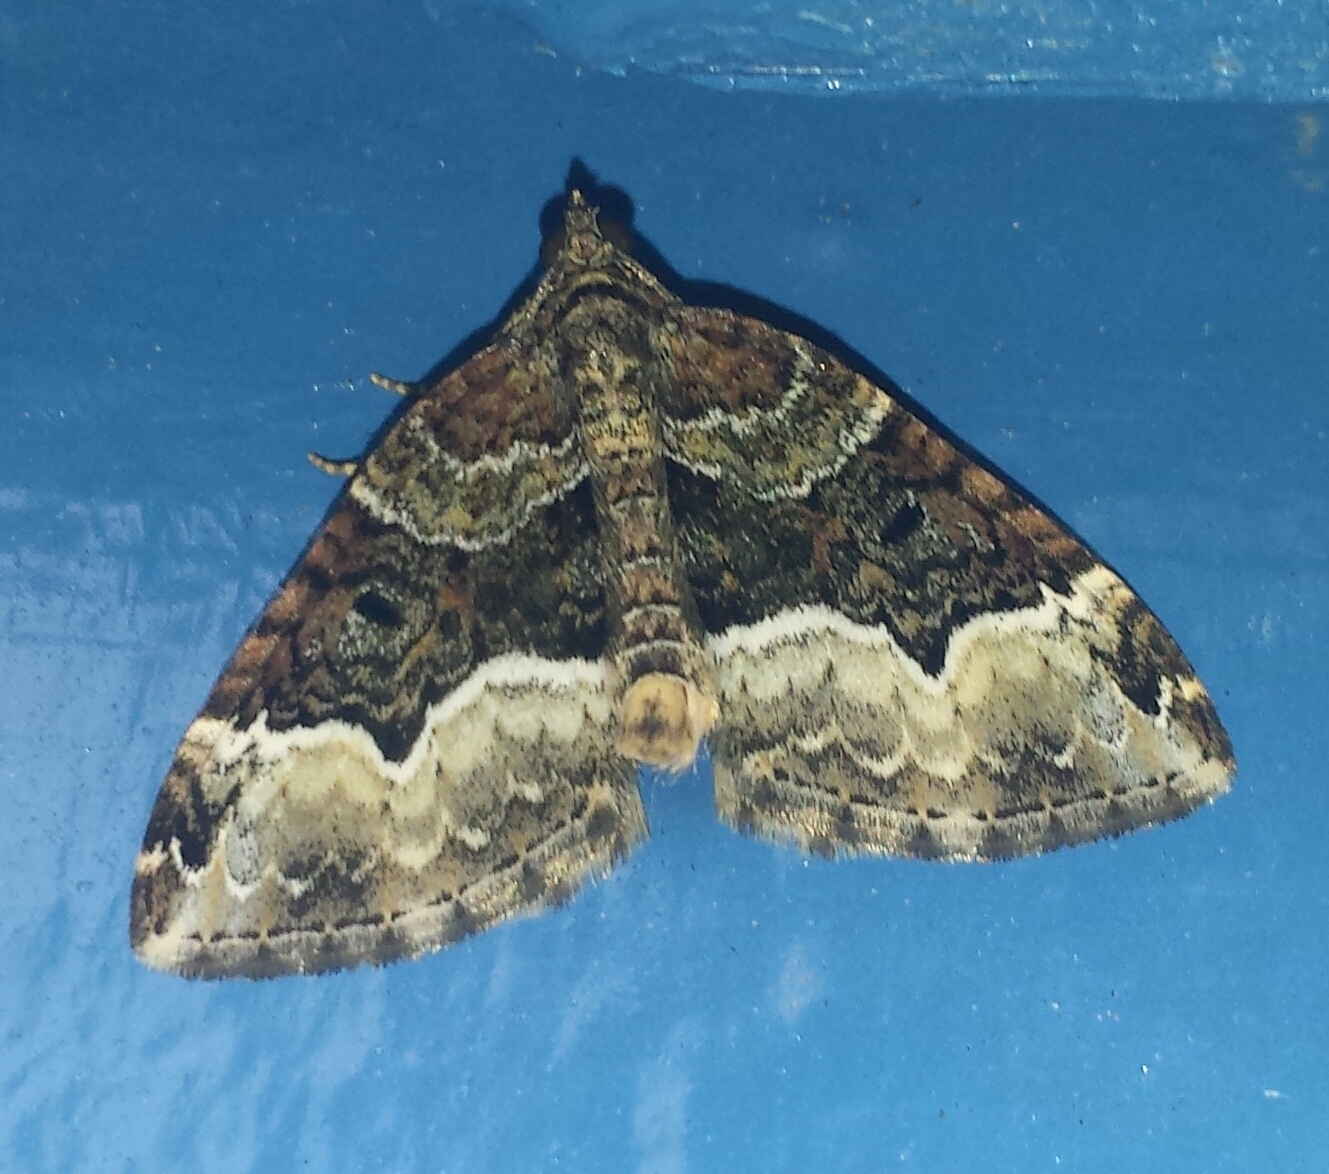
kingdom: Animalia
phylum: Arthropoda
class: Insecta
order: Lepidoptera
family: Geometridae
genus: Euphyia
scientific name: Euphyia intermediata
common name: Sharp-angled carpet
